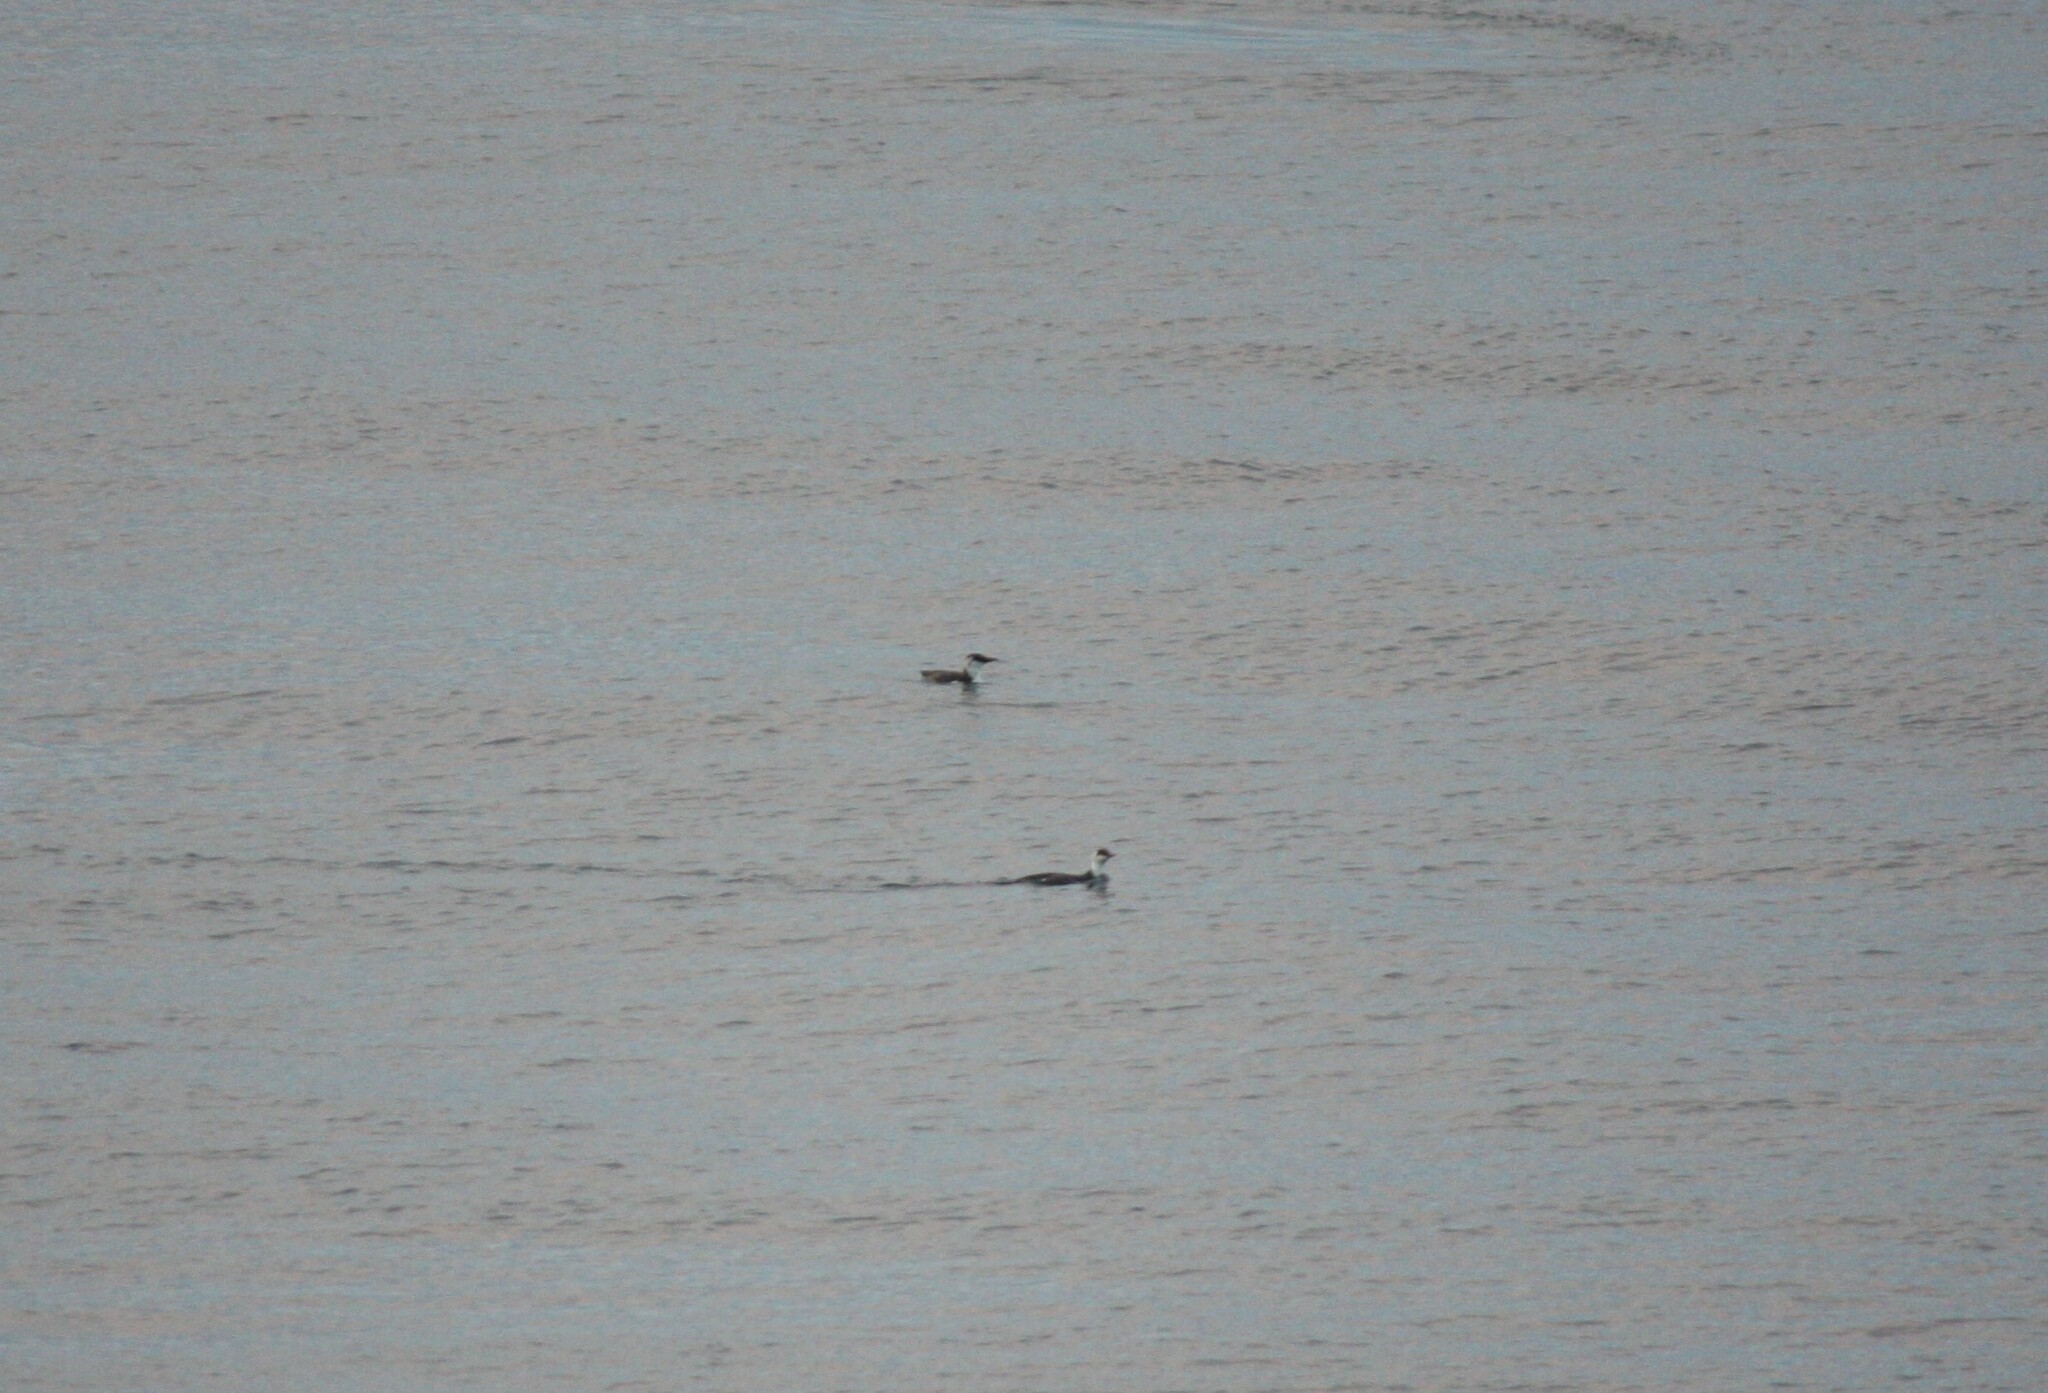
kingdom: Animalia
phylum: Chordata
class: Aves
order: Podicipediformes
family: Podicipedidae
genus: Aechmophorus
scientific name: Aechmophorus occidentalis
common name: Western grebe
